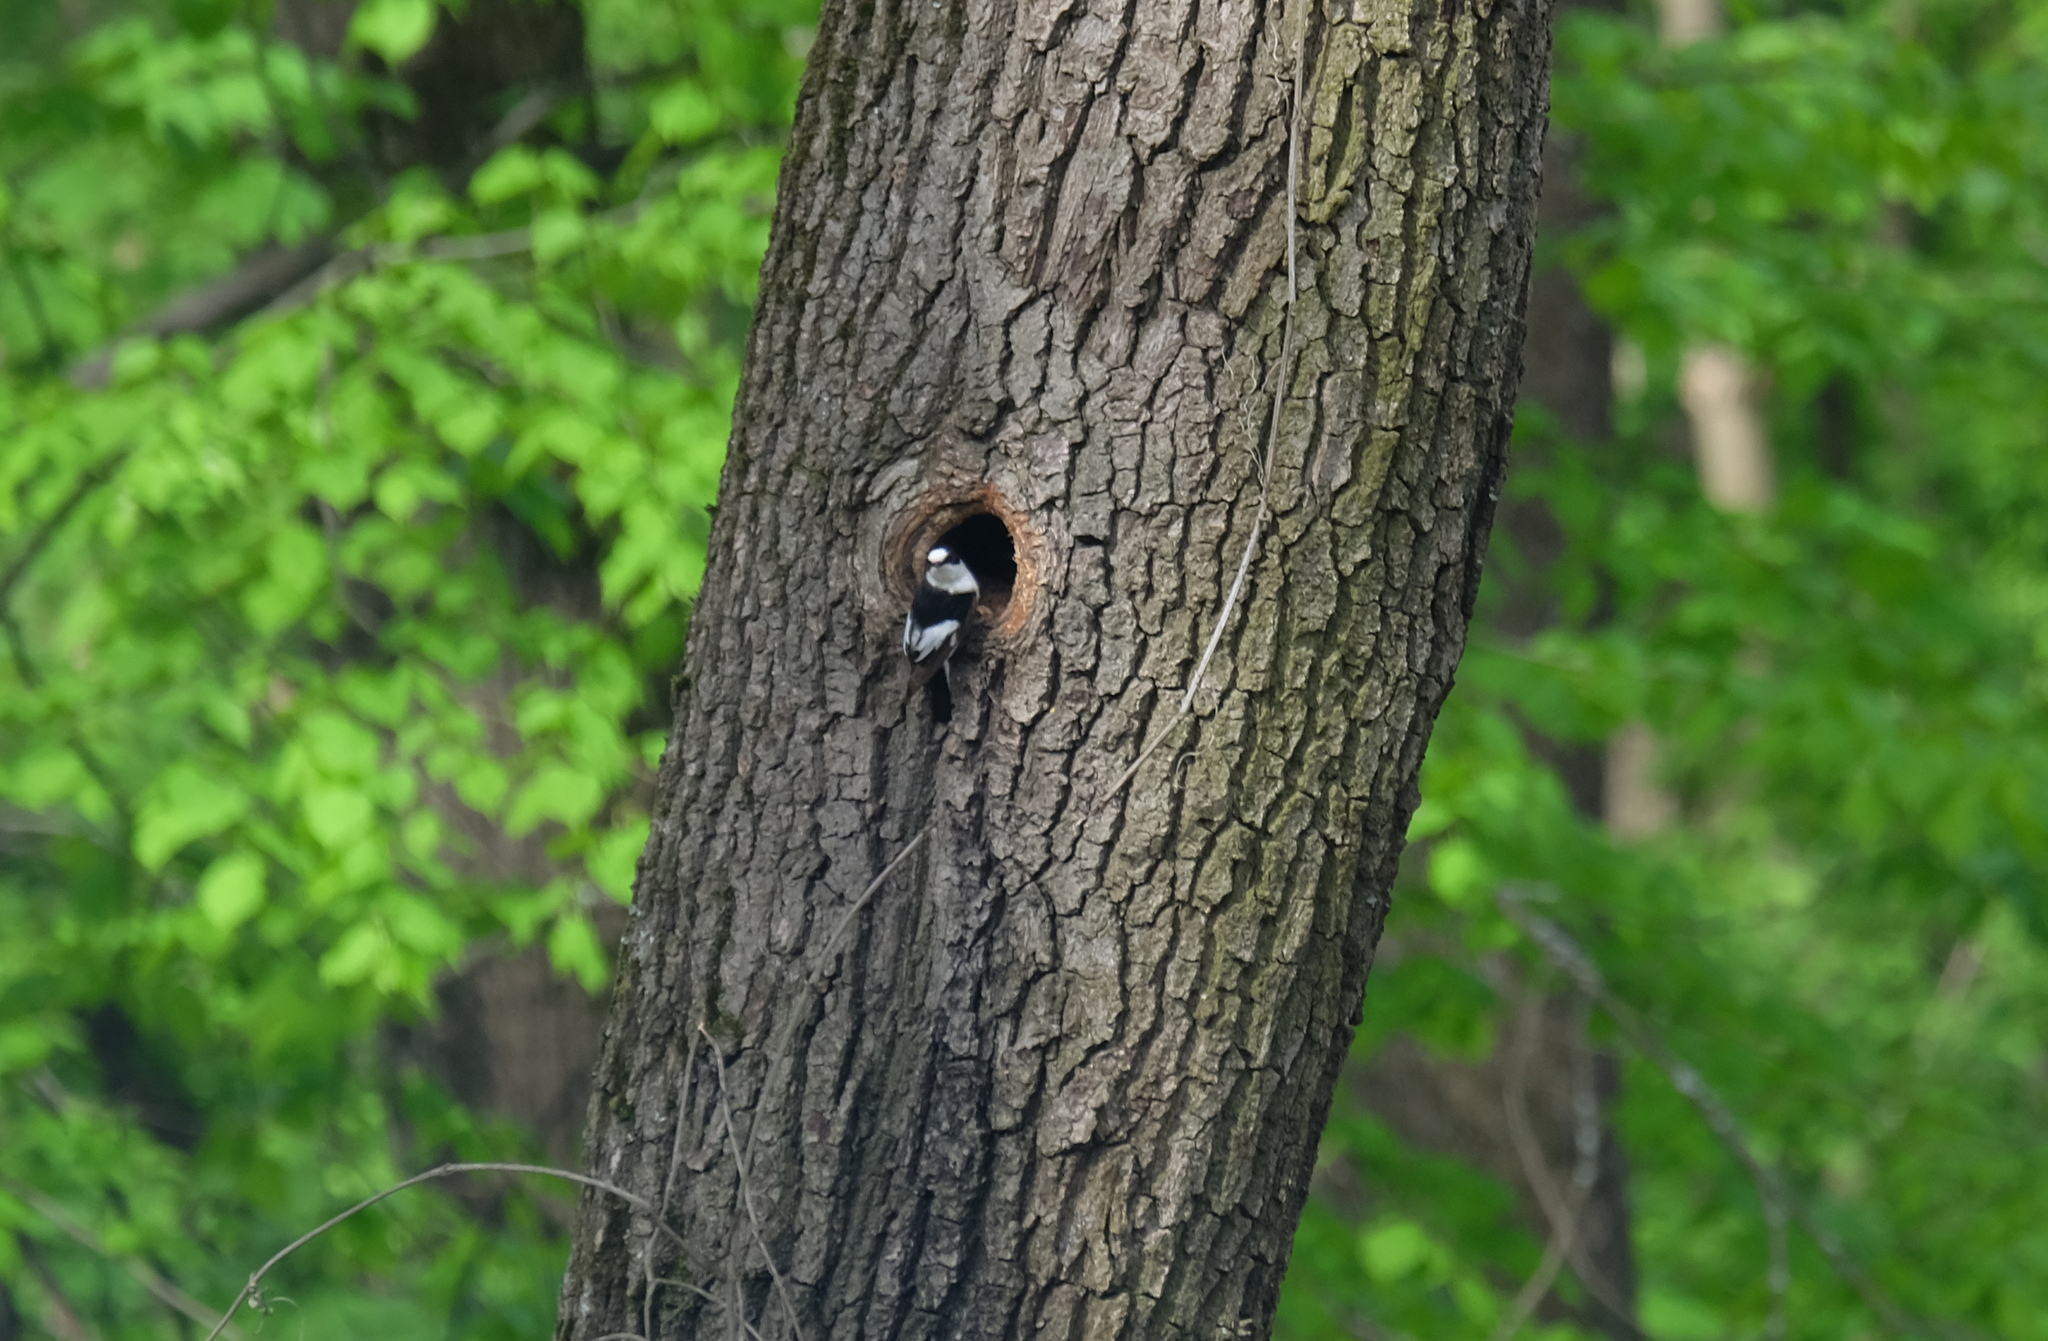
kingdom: Animalia
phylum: Chordata
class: Aves
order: Passeriformes
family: Muscicapidae
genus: Ficedula
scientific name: Ficedula albicollis
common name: Collared flycatcher
